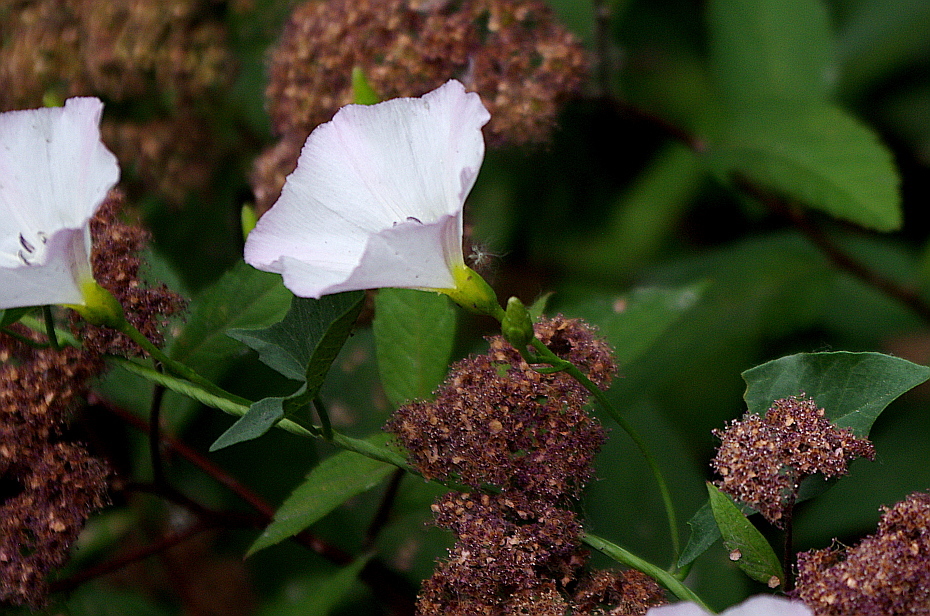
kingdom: Plantae
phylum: Tracheophyta
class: Magnoliopsida
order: Solanales
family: Convolvulaceae
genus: Convolvulus
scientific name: Convolvulus arvensis
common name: Field bindweed
